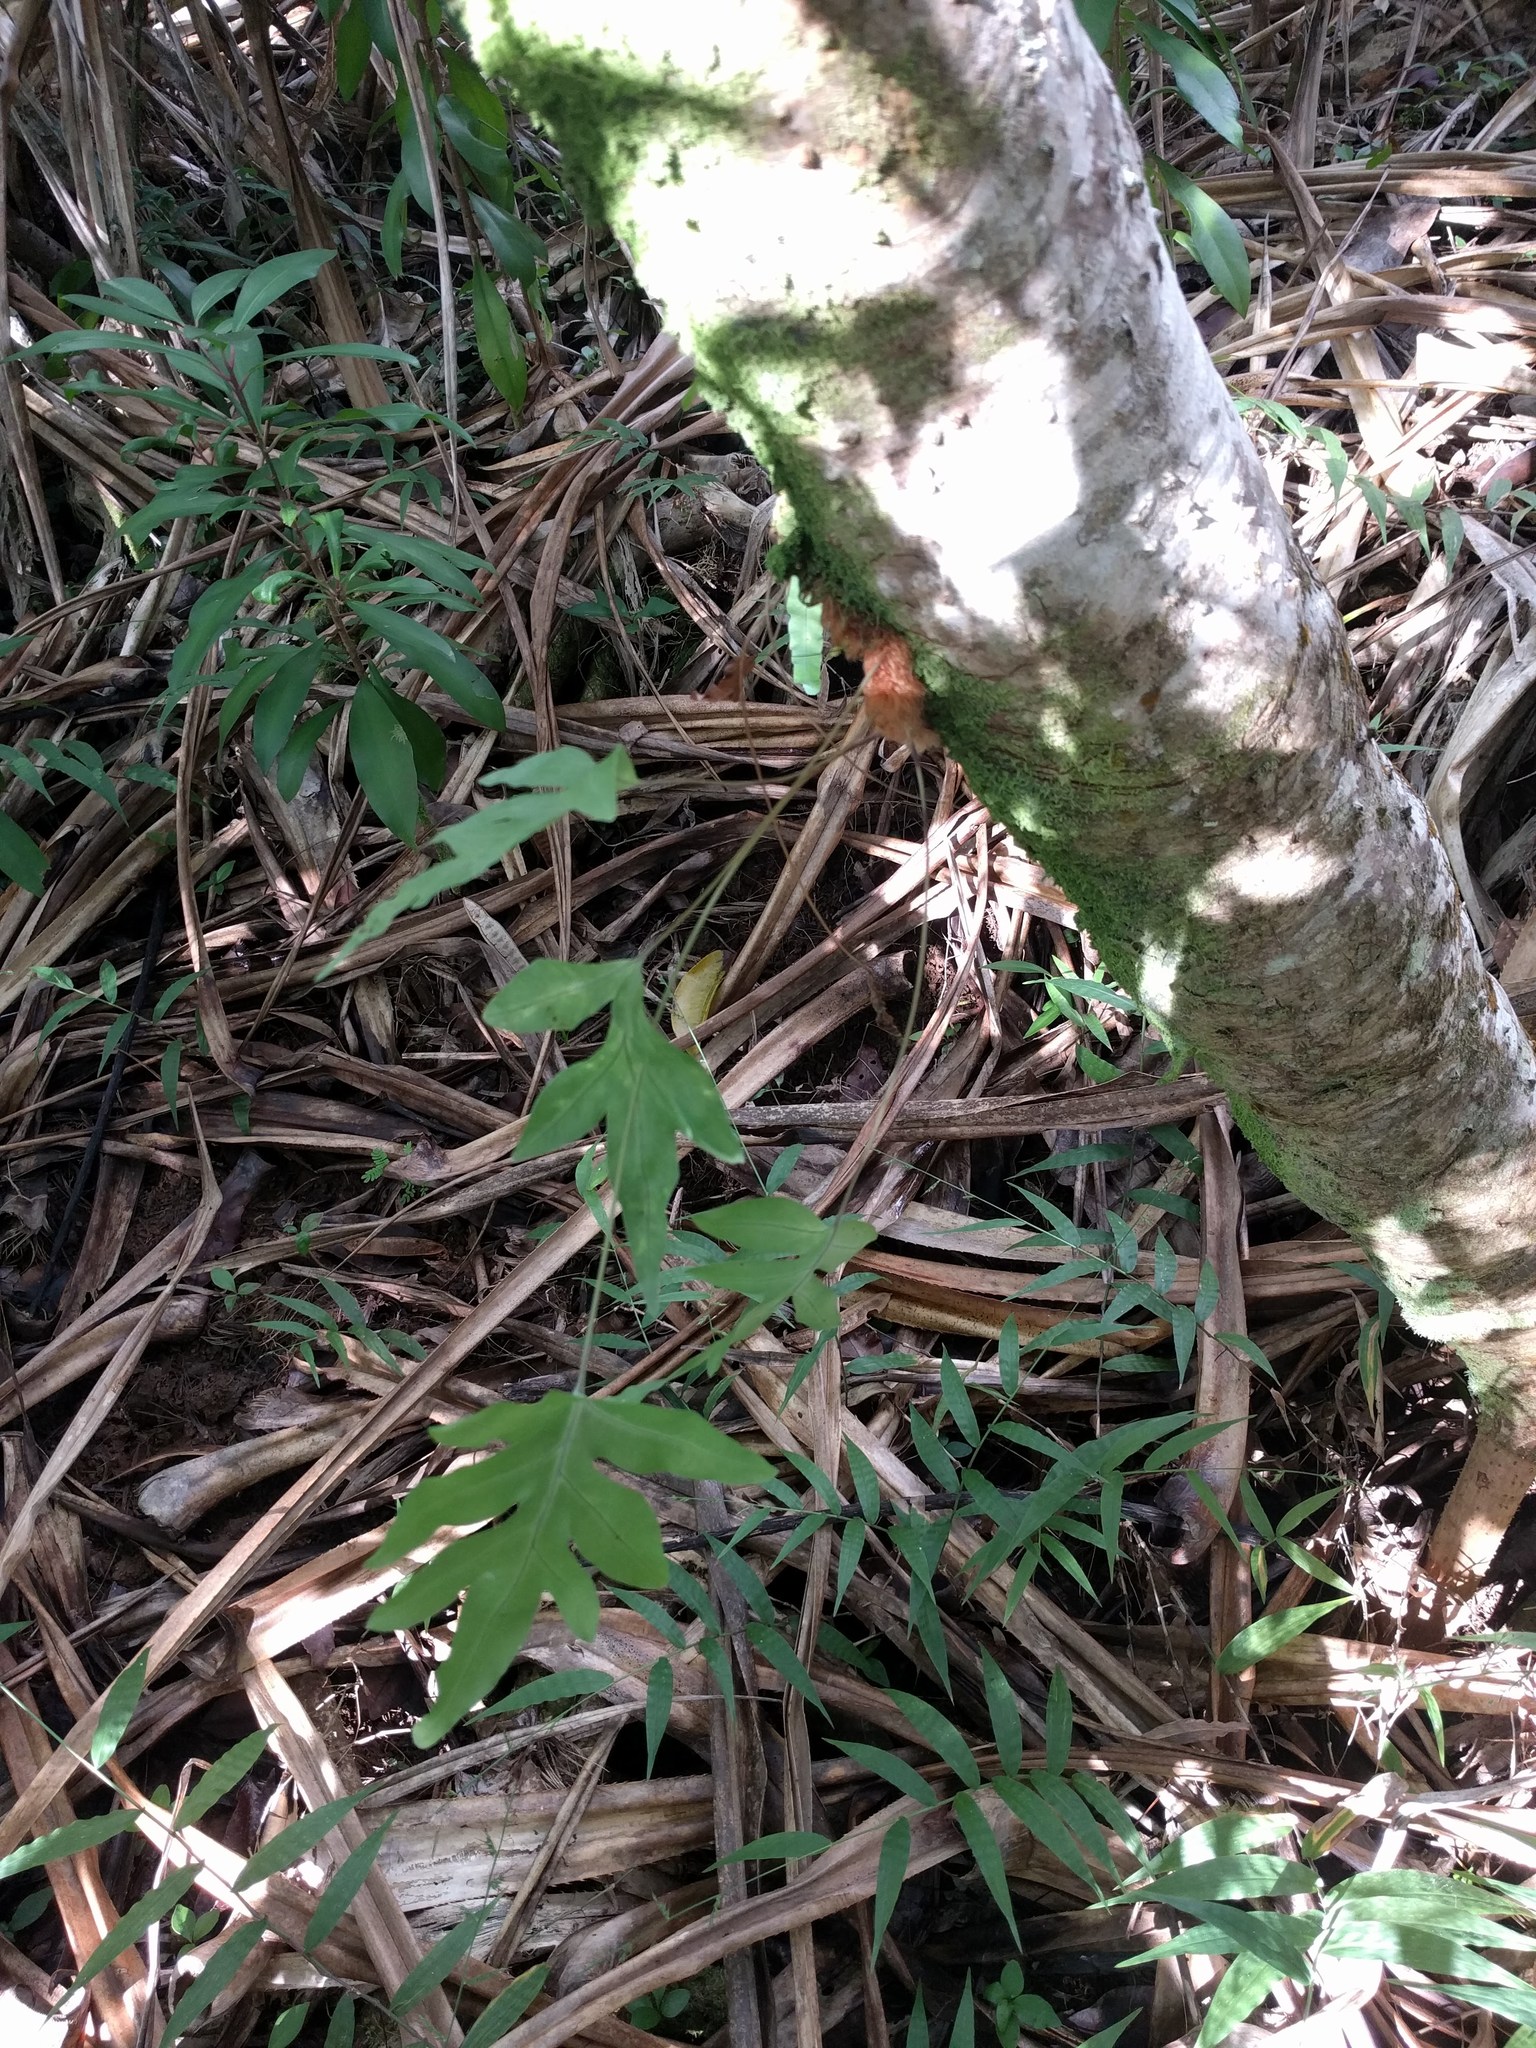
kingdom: Plantae
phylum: Tracheophyta
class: Polypodiopsida
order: Polypodiales
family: Polypodiaceae
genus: Phlebodium
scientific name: Phlebodium aureum
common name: Gold-foot fern
